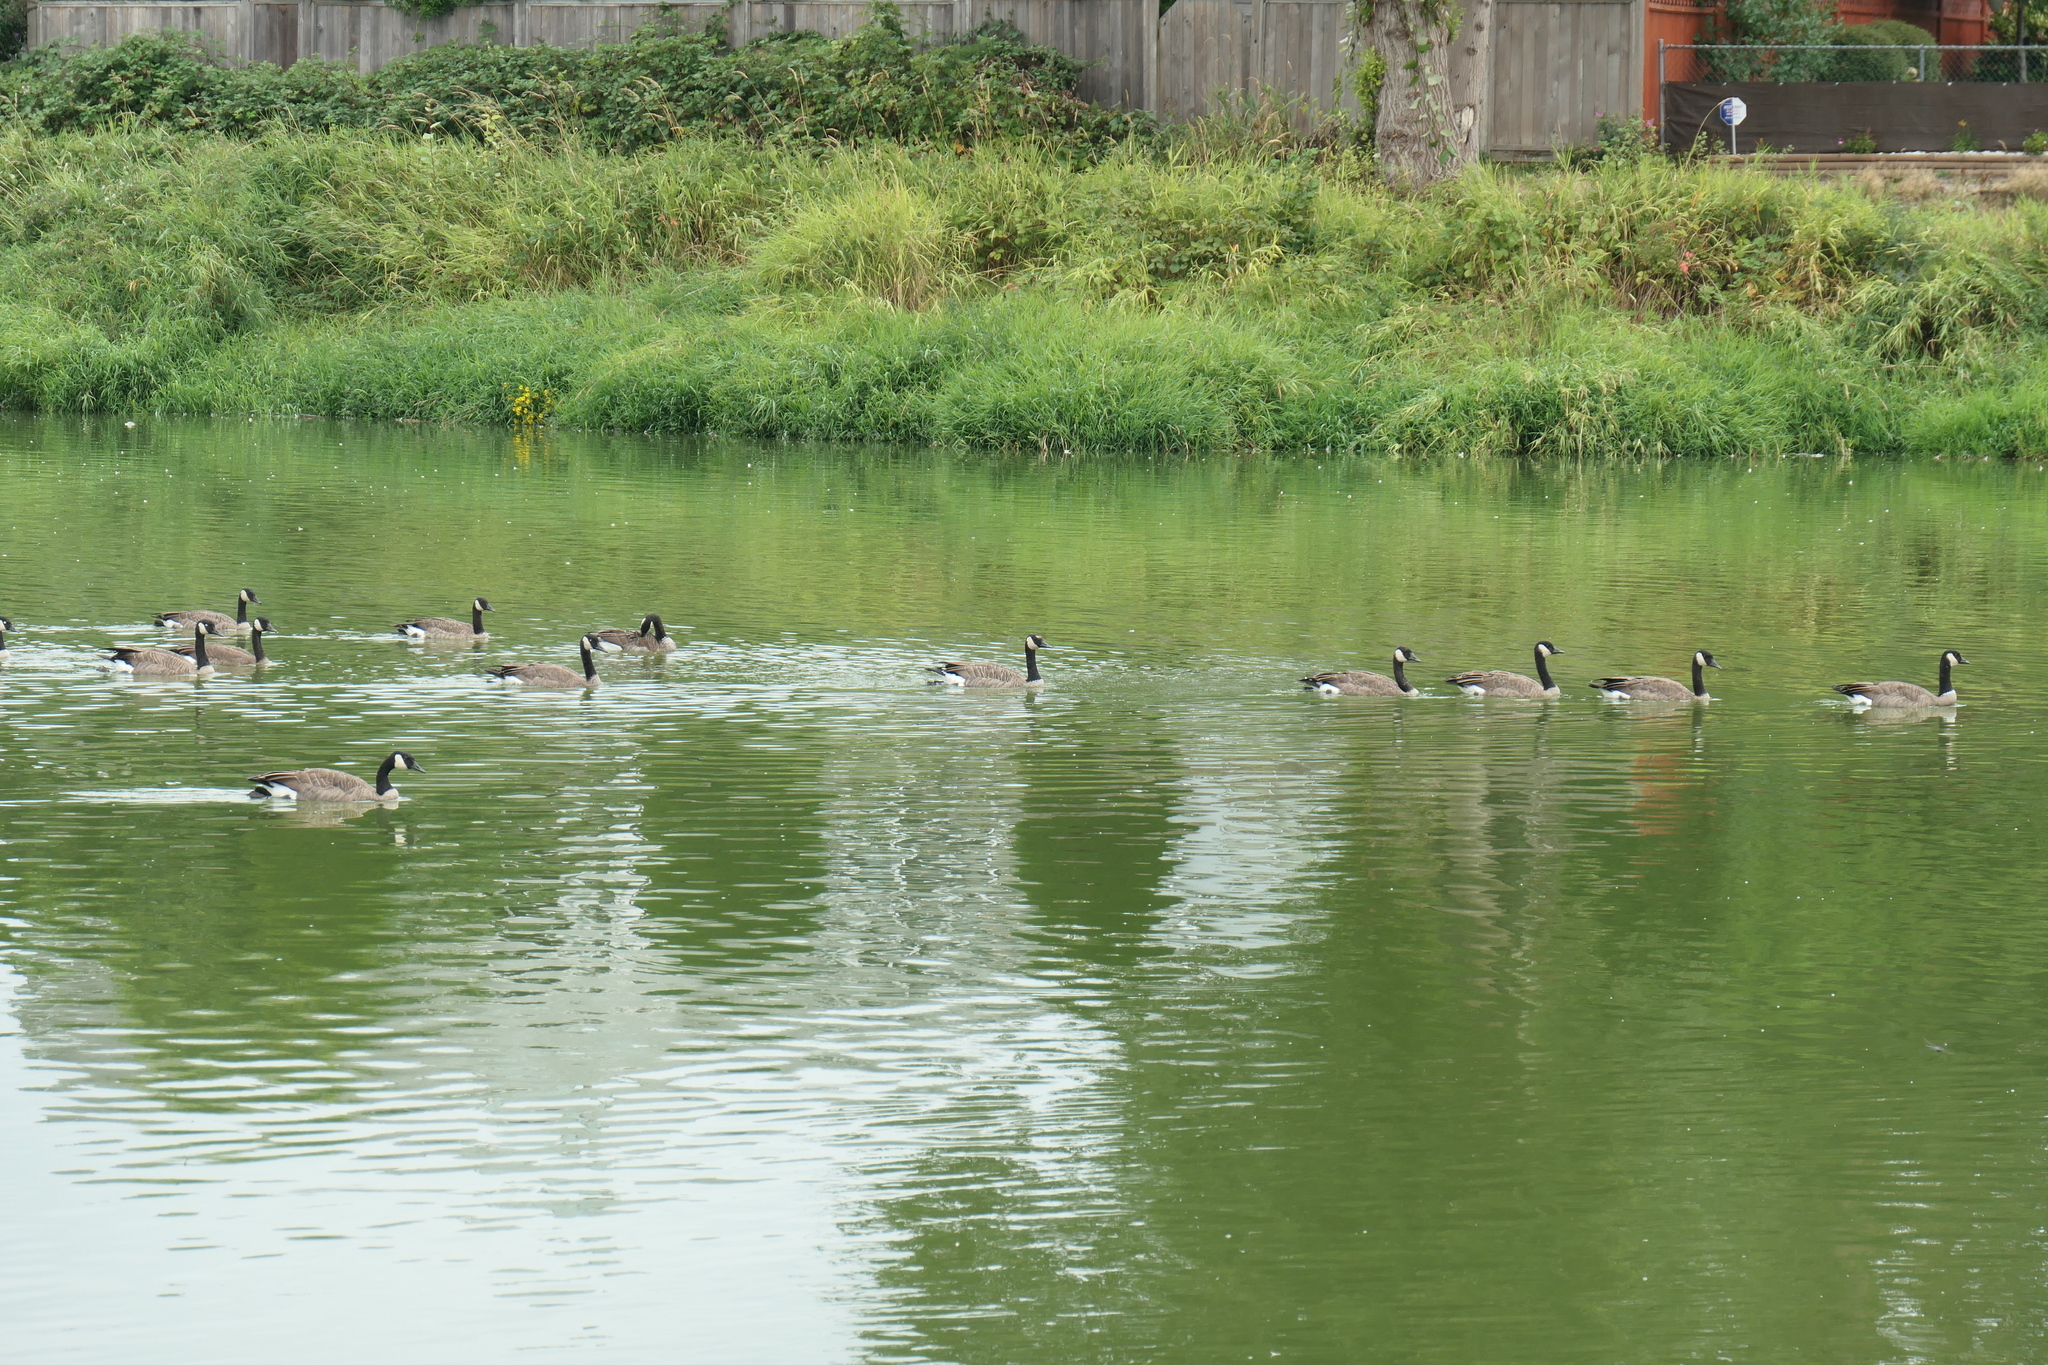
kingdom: Animalia
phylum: Chordata
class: Aves
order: Anseriformes
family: Anatidae
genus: Branta
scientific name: Branta canadensis
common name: Canada goose
